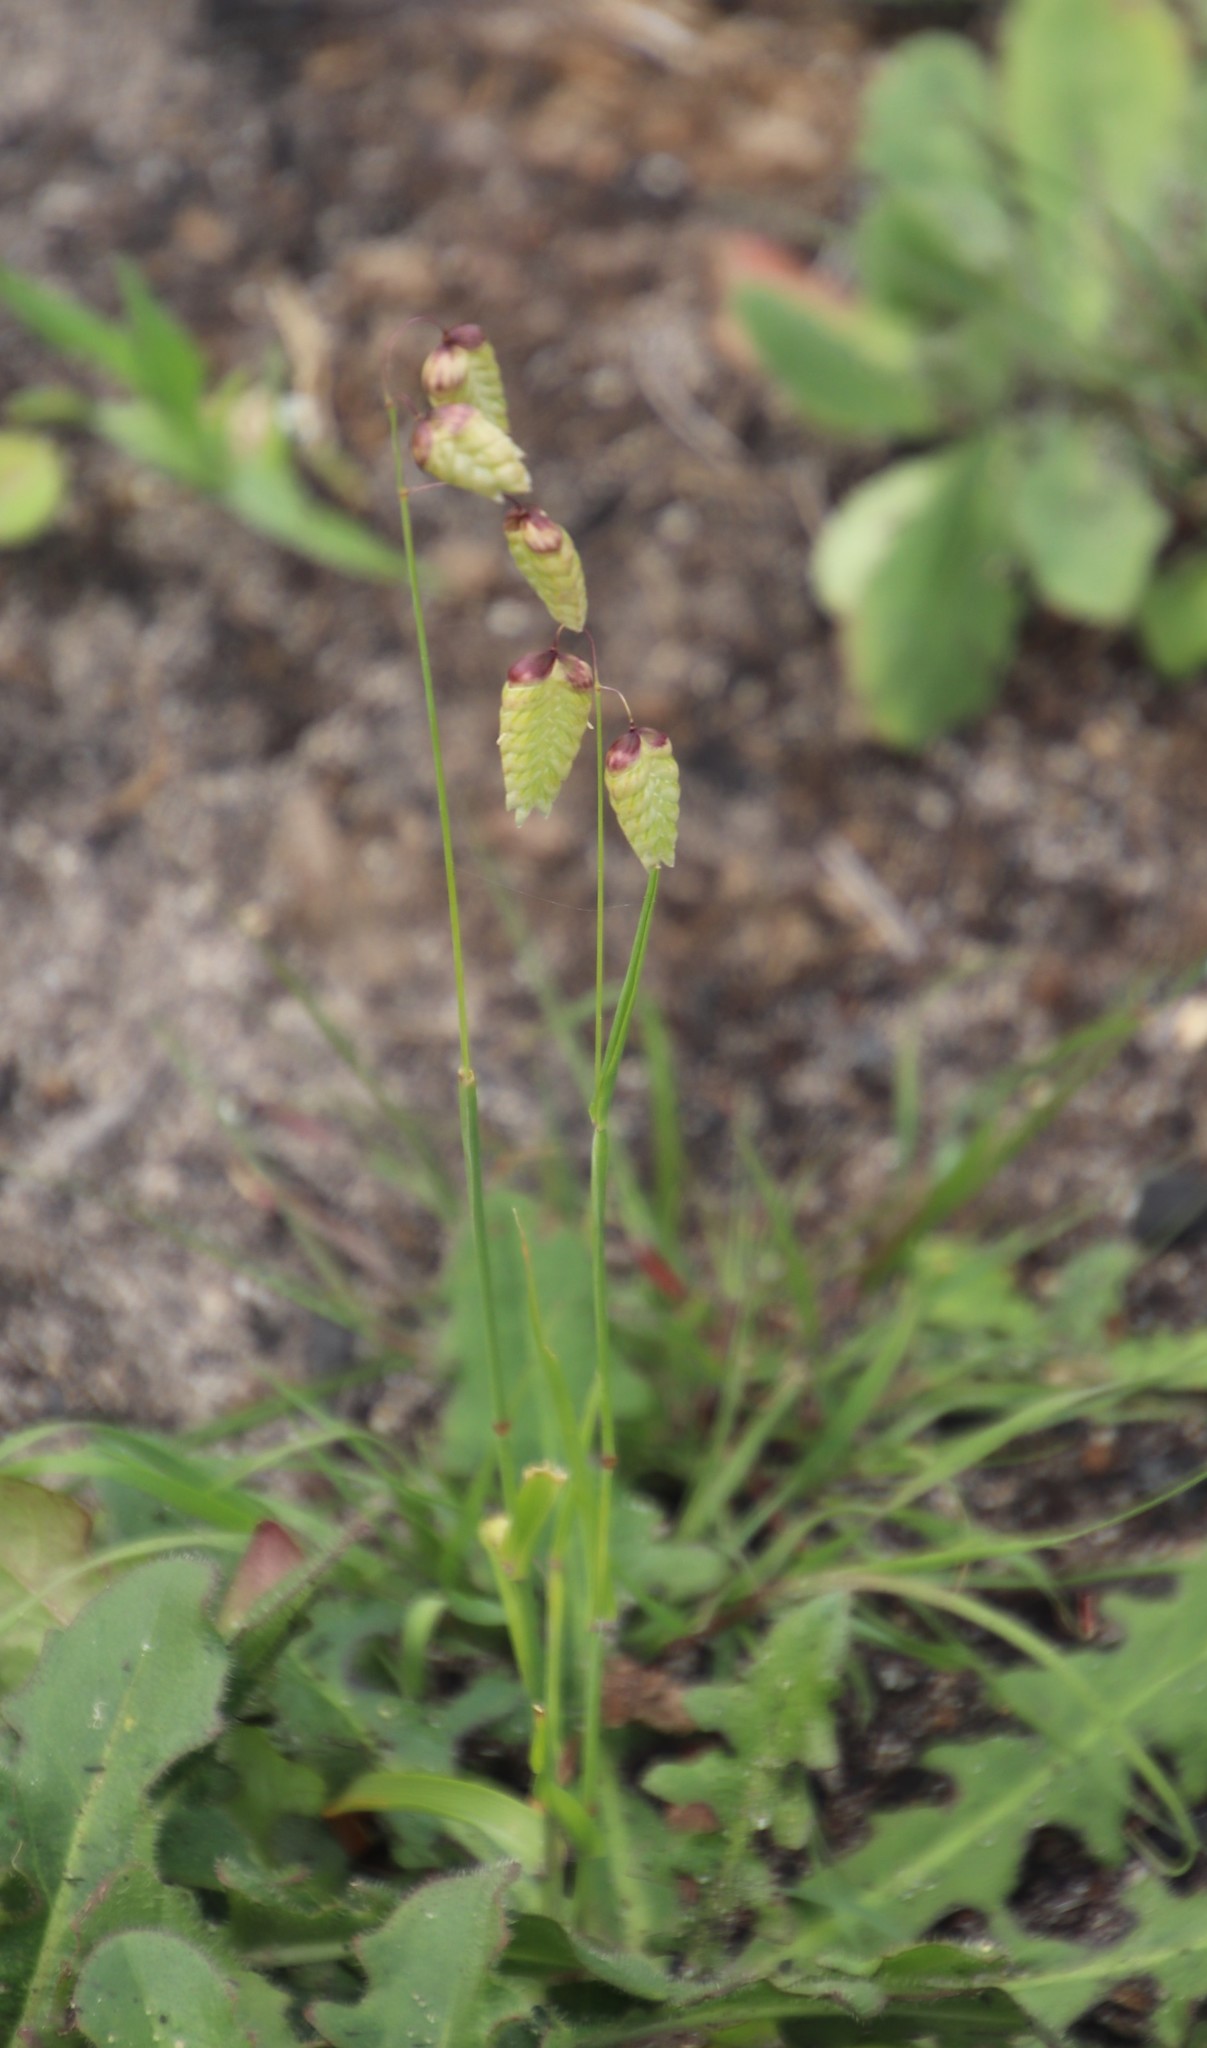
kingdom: Plantae
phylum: Tracheophyta
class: Liliopsida
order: Poales
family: Poaceae
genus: Briza
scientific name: Briza maxima
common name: Big quakinggrass
